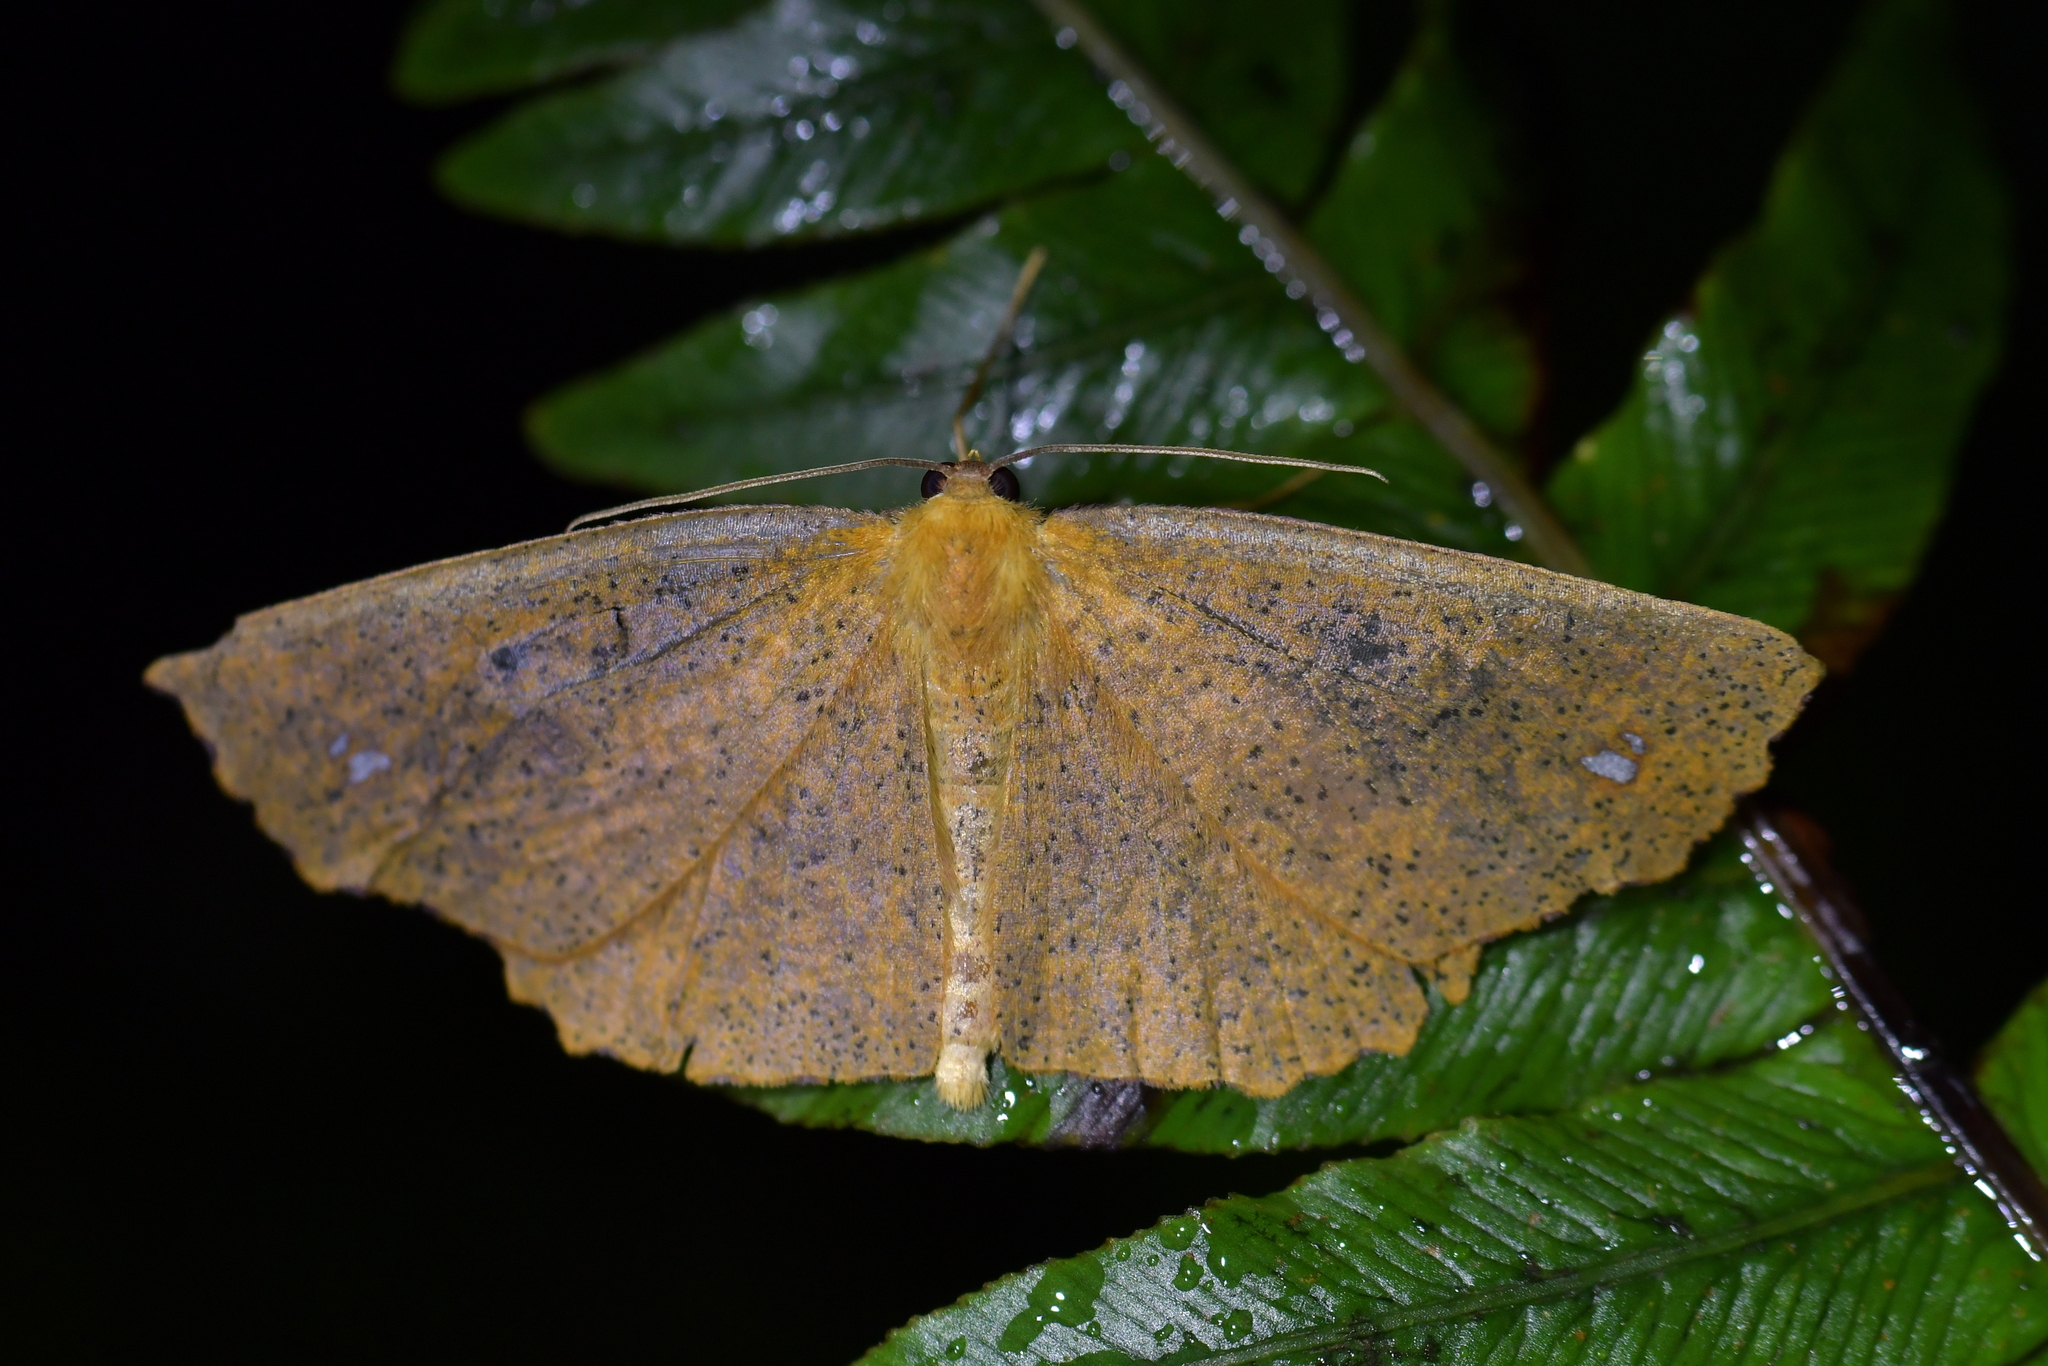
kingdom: Animalia
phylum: Arthropoda
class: Insecta
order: Lepidoptera
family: Geometridae
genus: Xyridacma
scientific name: Xyridacma ustaria
